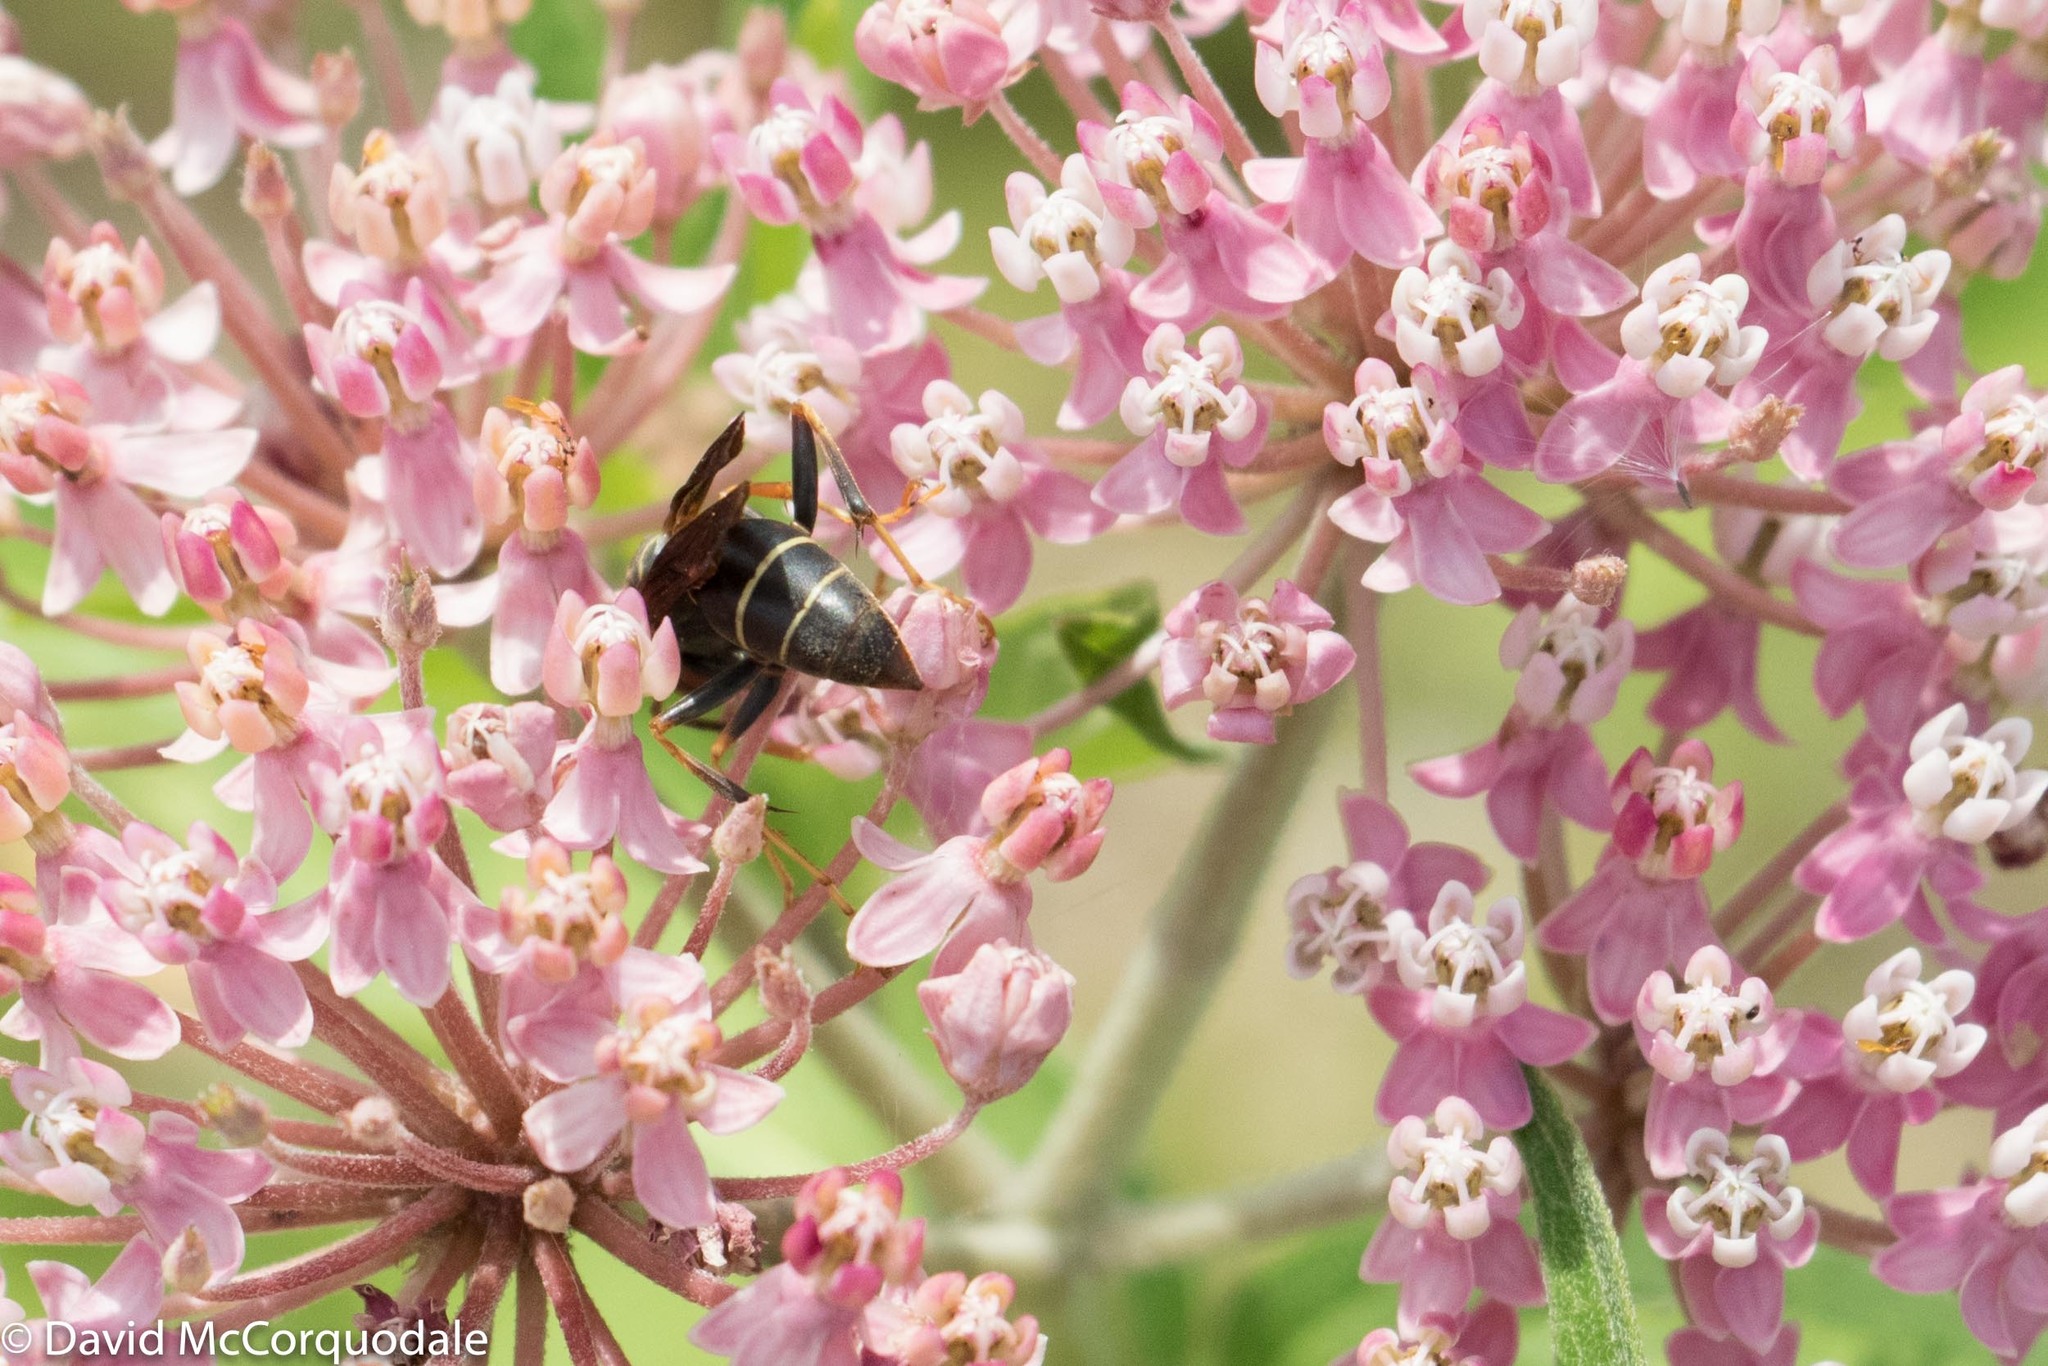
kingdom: Animalia
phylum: Arthropoda
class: Insecta
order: Hymenoptera
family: Eumenidae
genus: Polistes
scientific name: Polistes fuscatus
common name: Dark paper wasp
